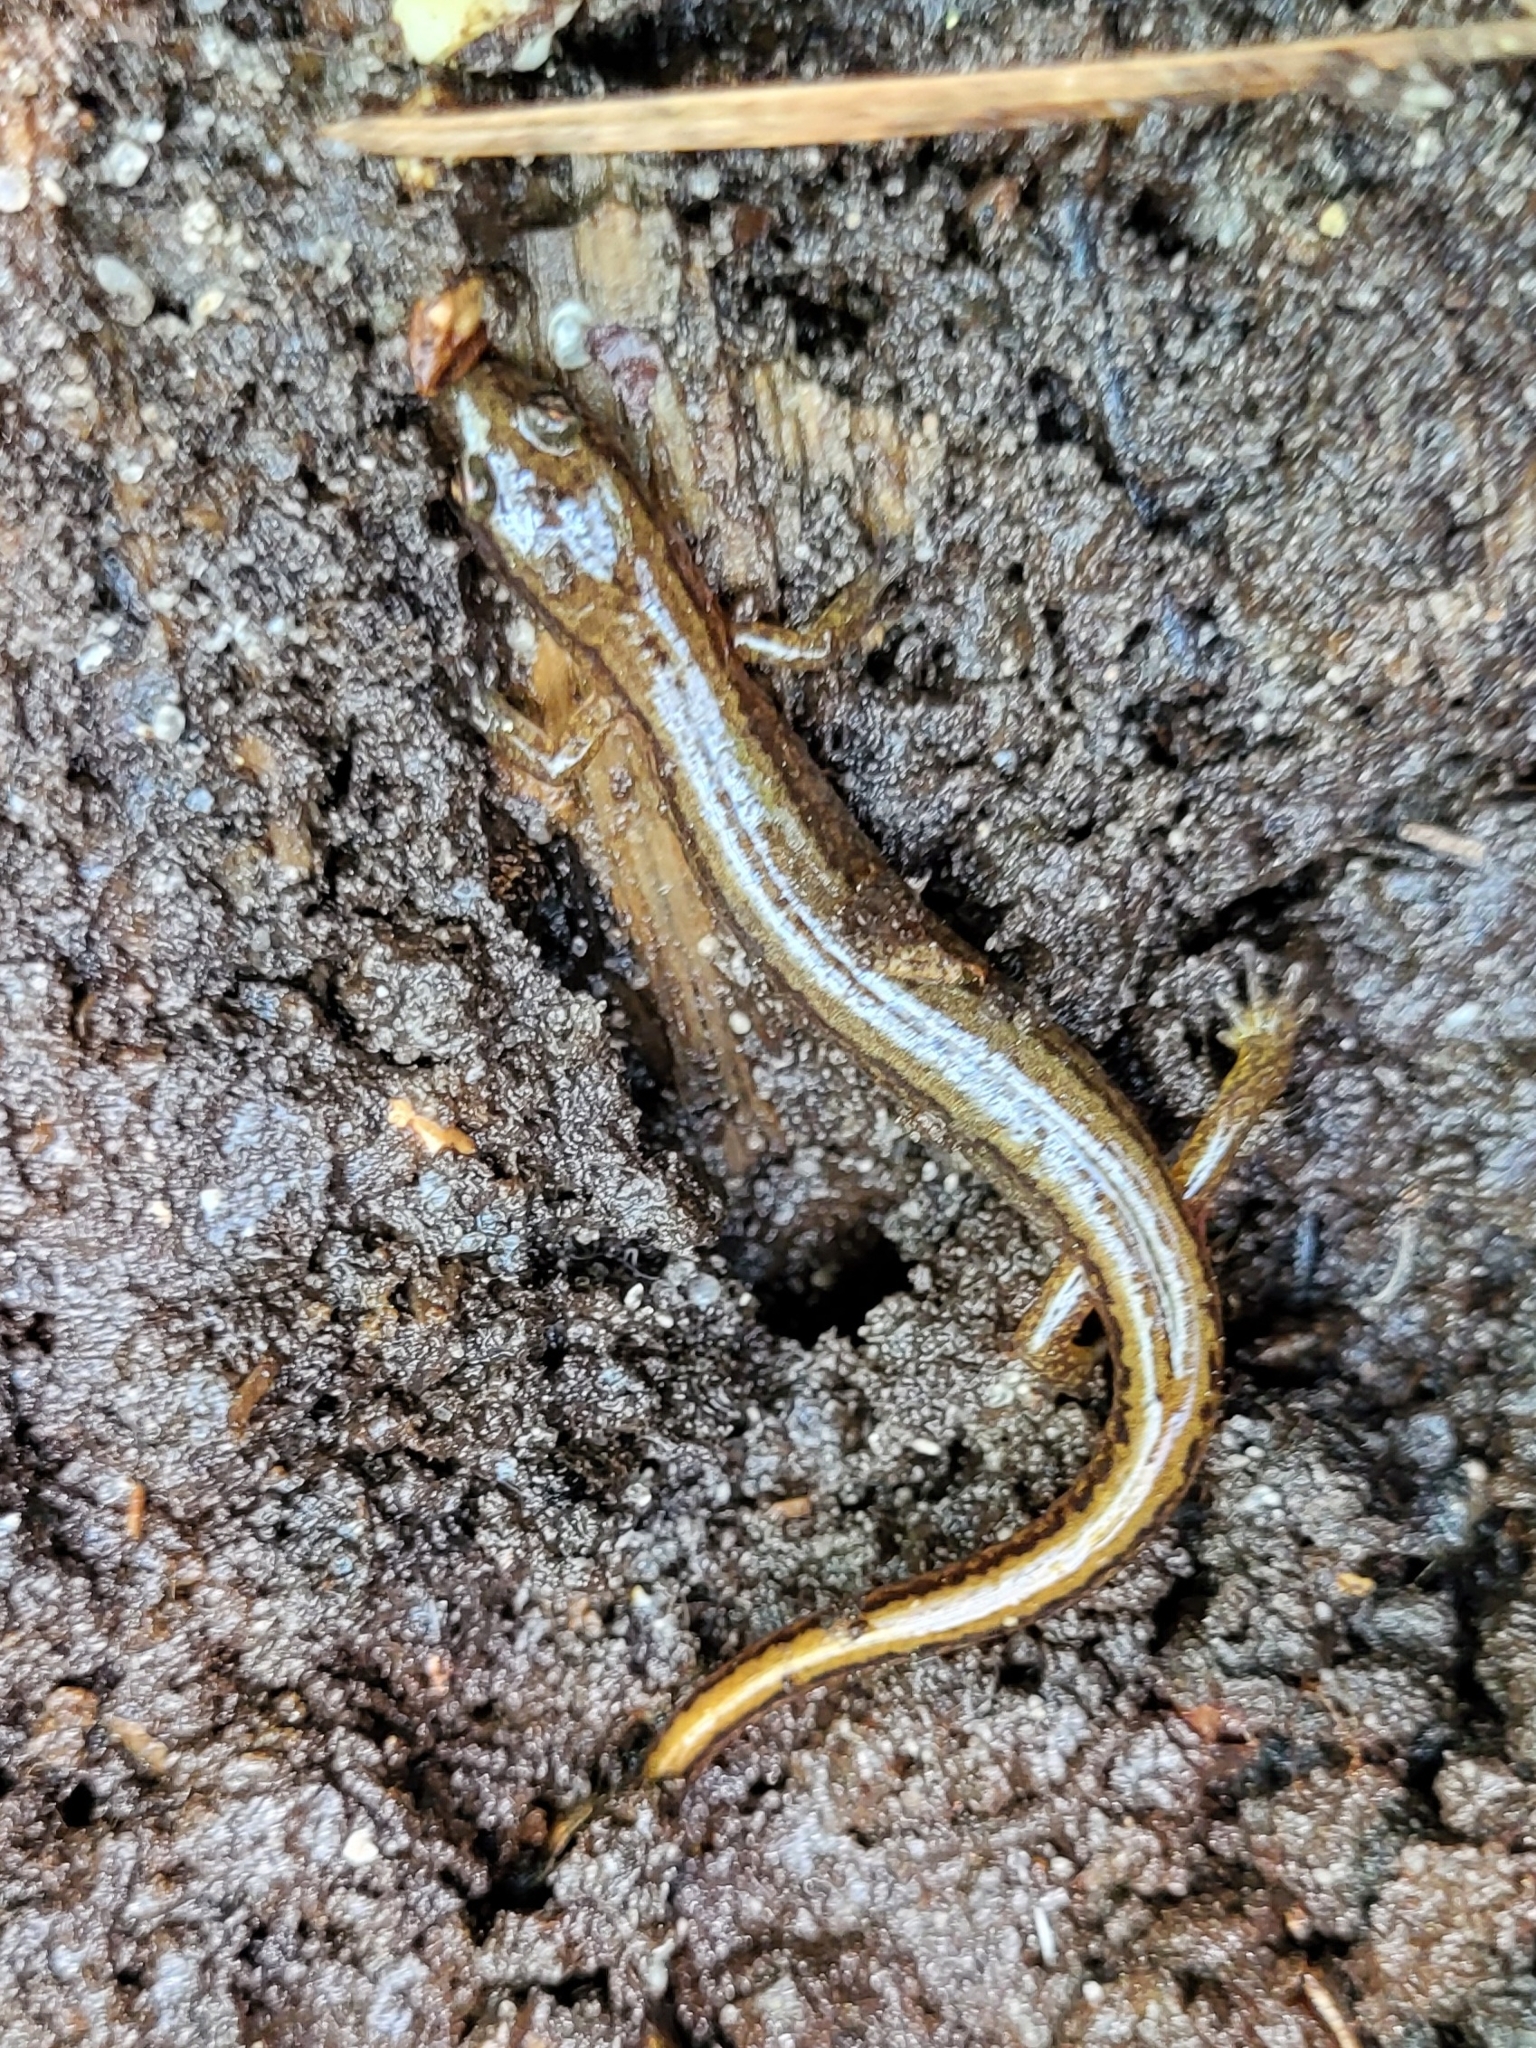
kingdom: Animalia
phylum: Chordata
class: Amphibia
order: Caudata
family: Plethodontidae
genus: Eurycea
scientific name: Eurycea bislineata
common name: Northern two-lined salamander
